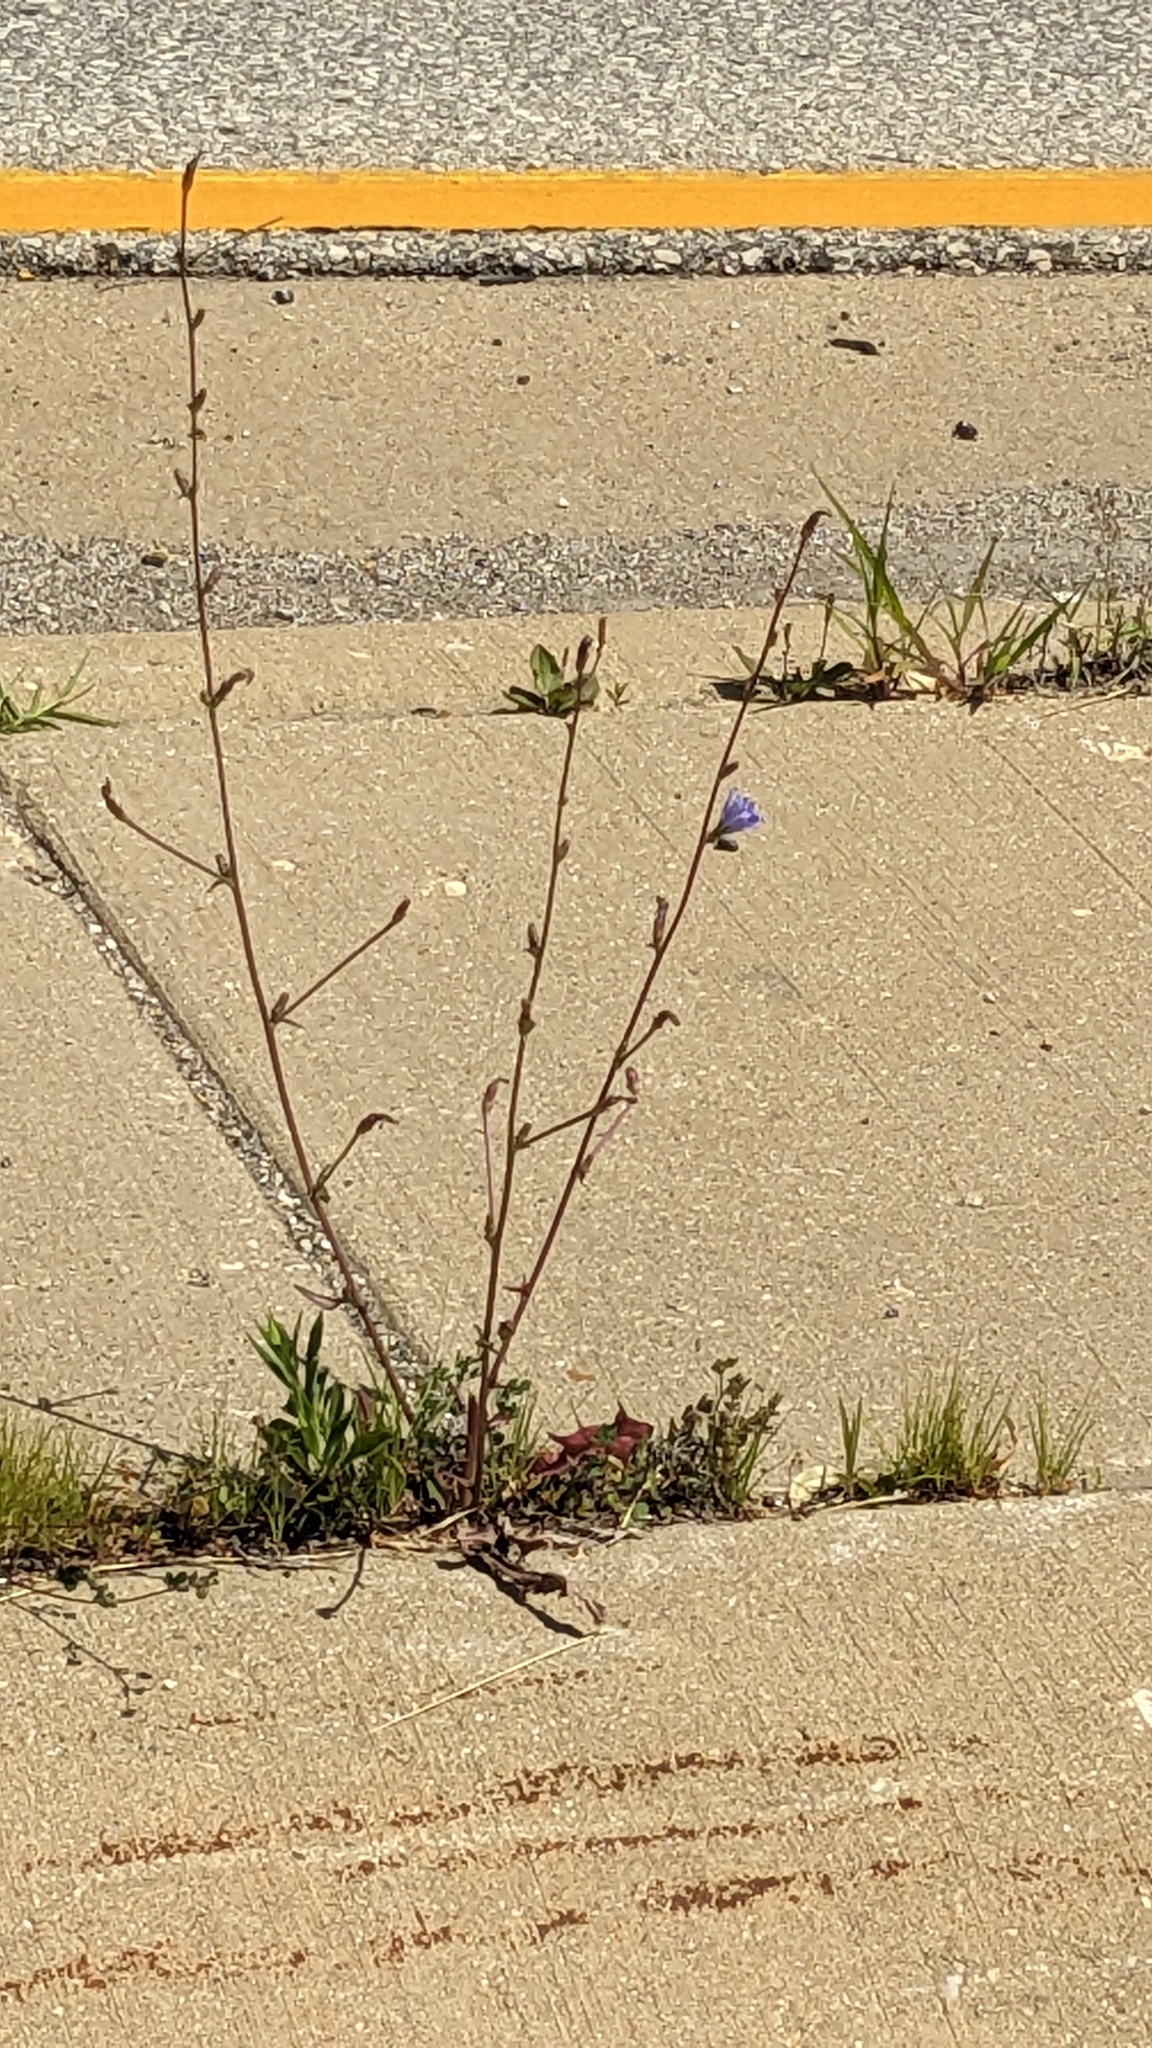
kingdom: Plantae
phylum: Tracheophyta
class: Magnoliopsida
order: Asterales
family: Asteraceae
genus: Cichorium
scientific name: Cichorium intybus
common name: Chicory
